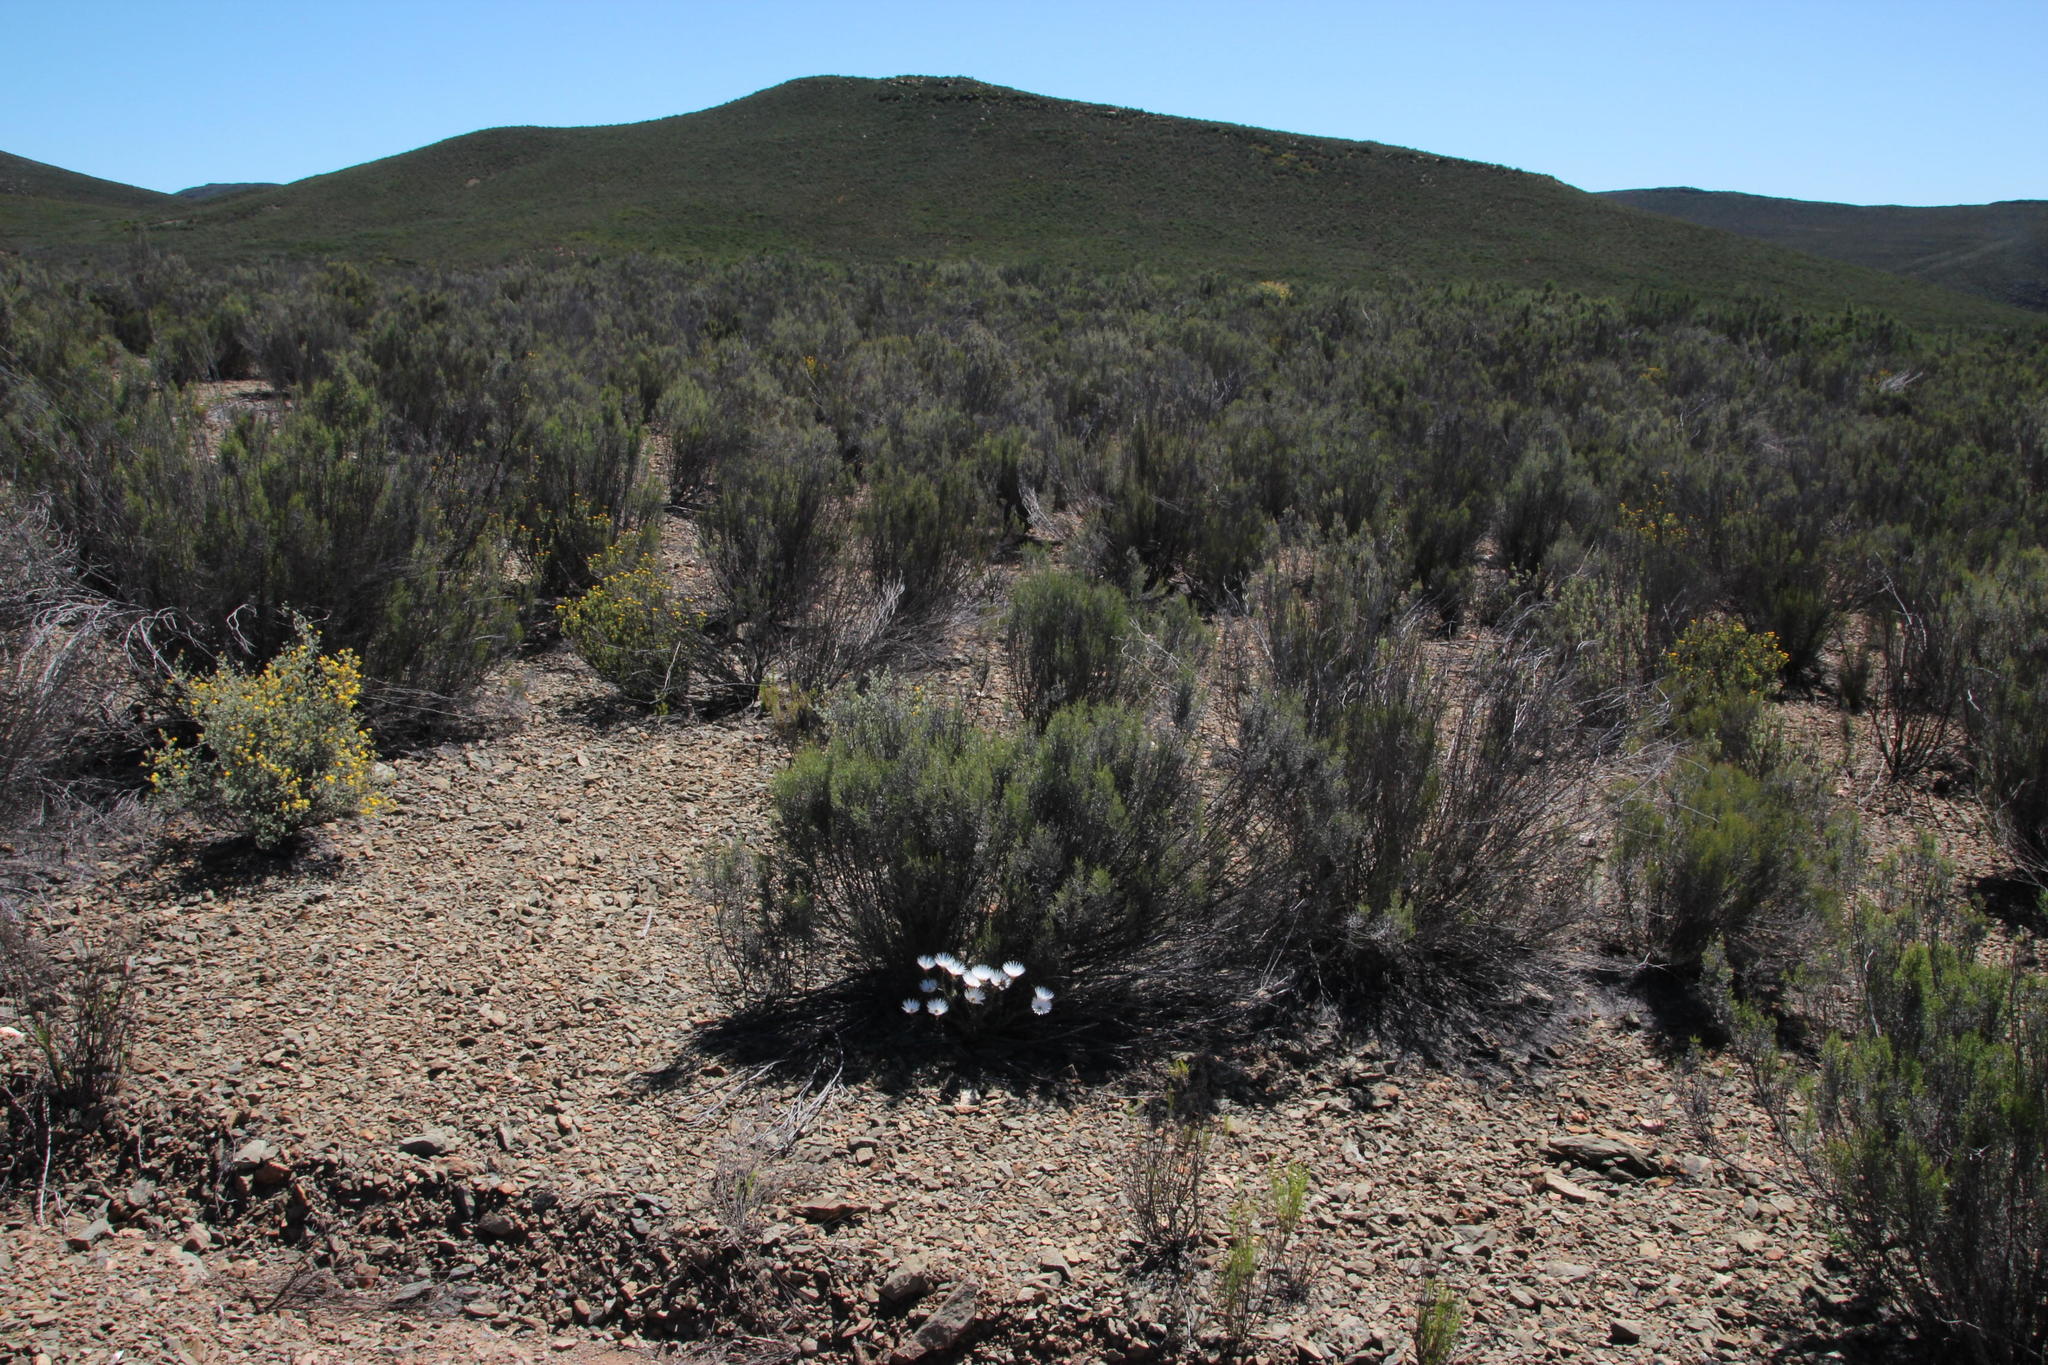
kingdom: Plantae
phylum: Tracheophyta
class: Magnoliopsida
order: Asterales
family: Asteraceae
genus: Dicerothamnus
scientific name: Dicerothamnus rhinocerotis
